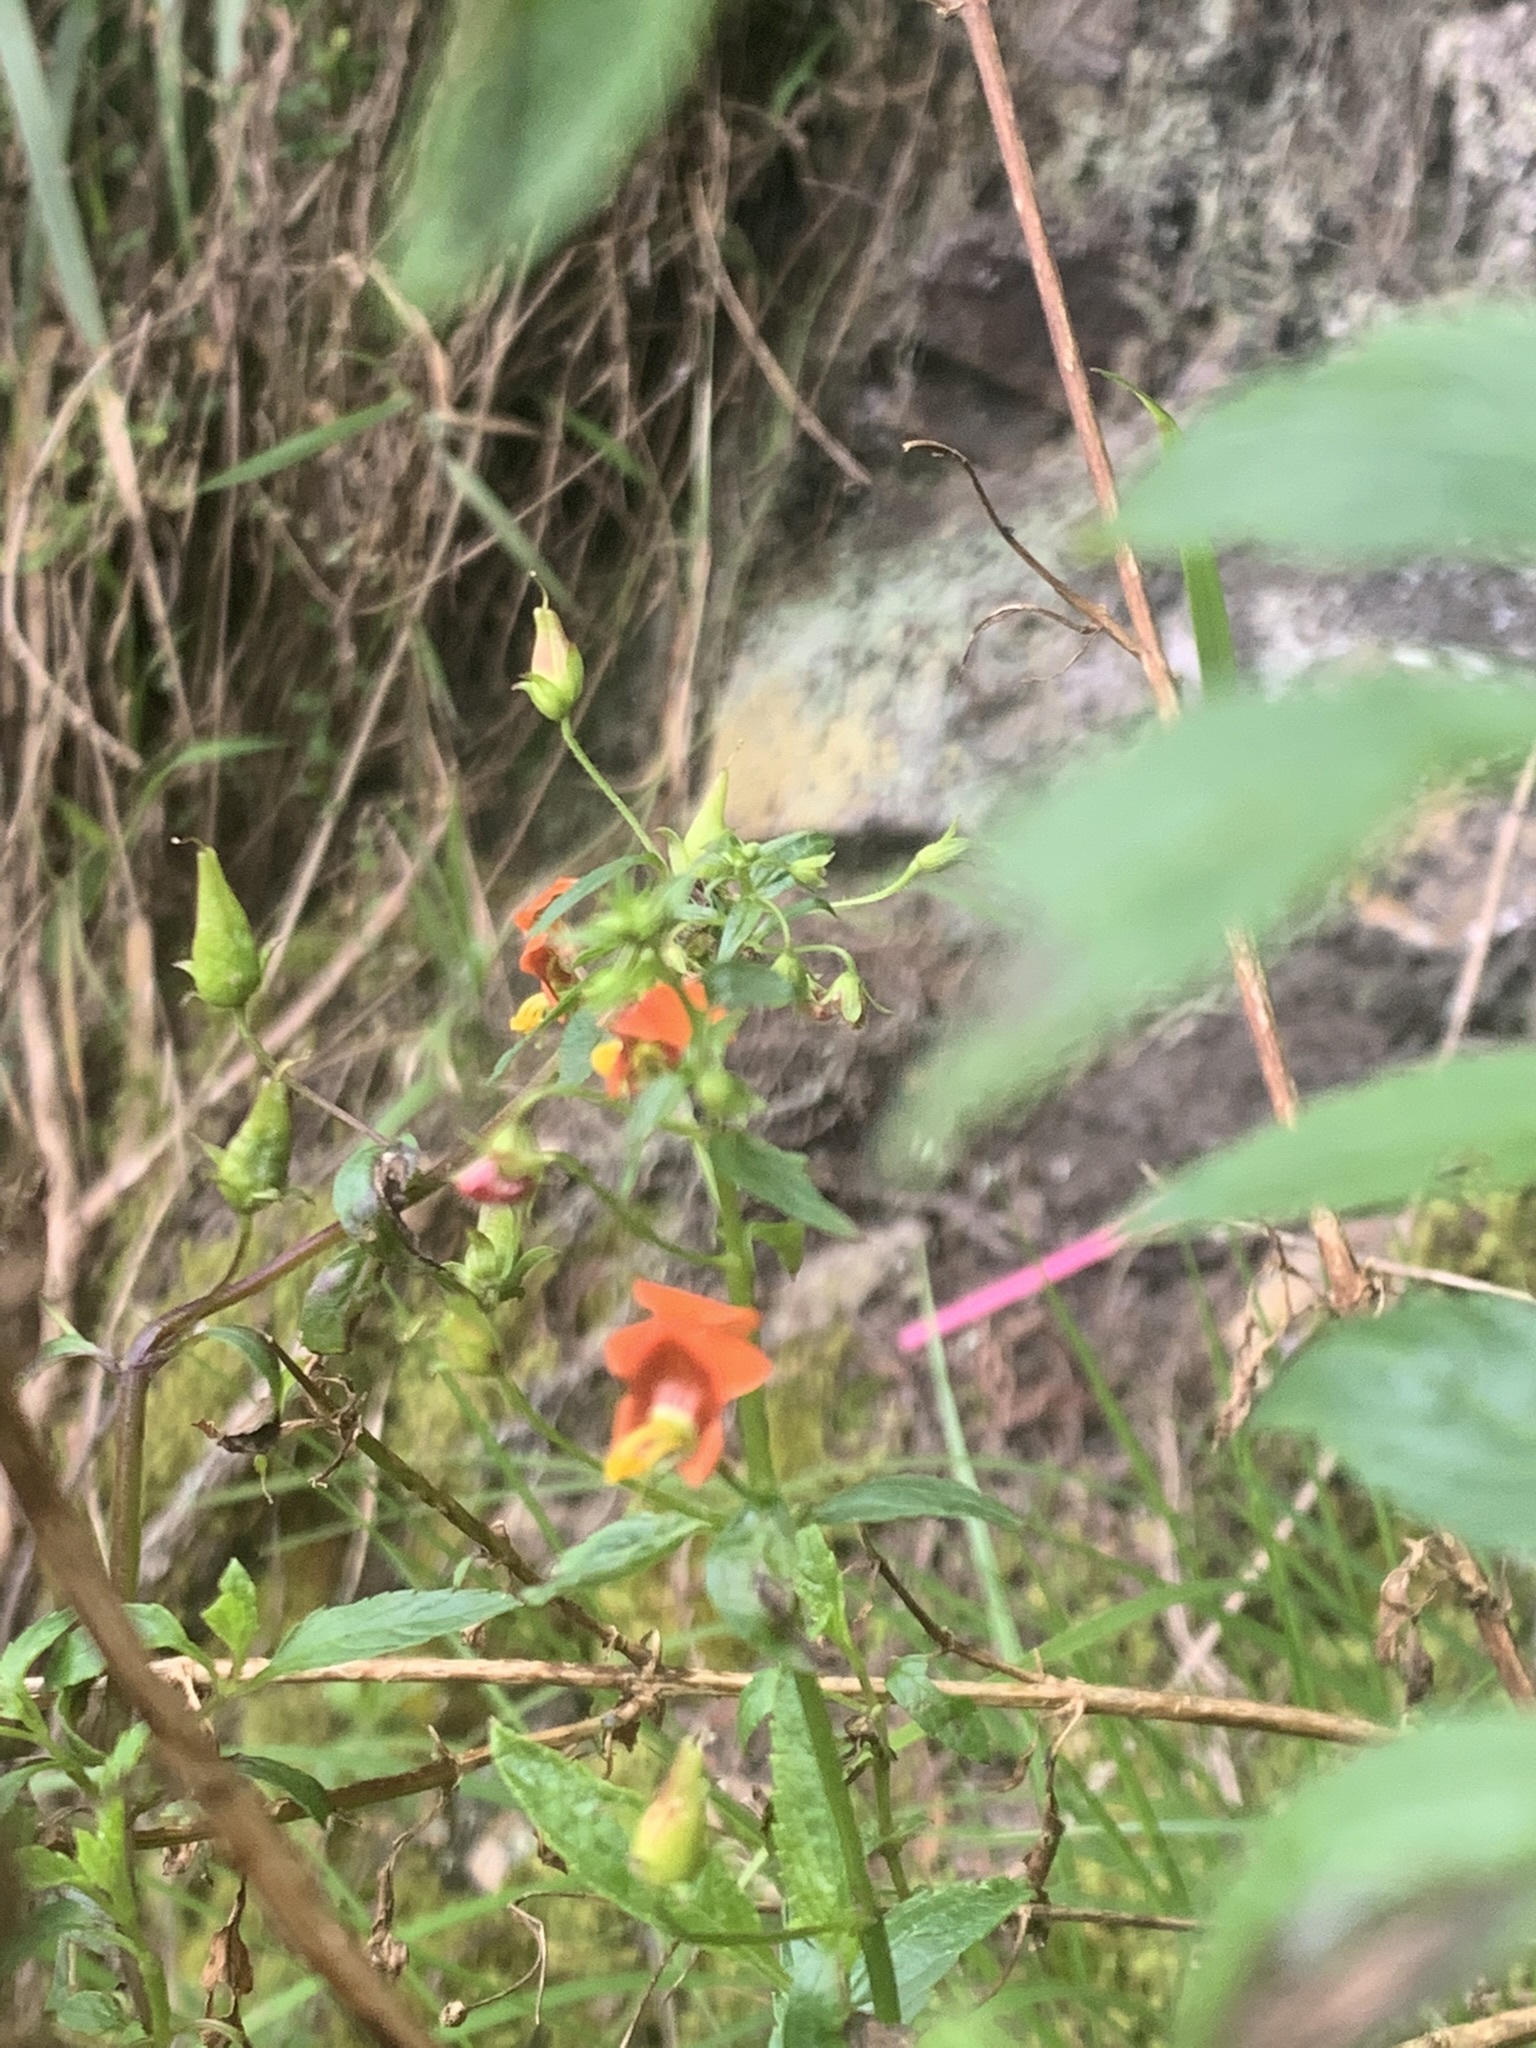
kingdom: Plantae
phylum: Tracheophyta
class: Magnoliopsida
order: Lamiales
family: Scrophulariaceae
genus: Alonsoa
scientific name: Alonsoa meridionalis
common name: Maskflower
